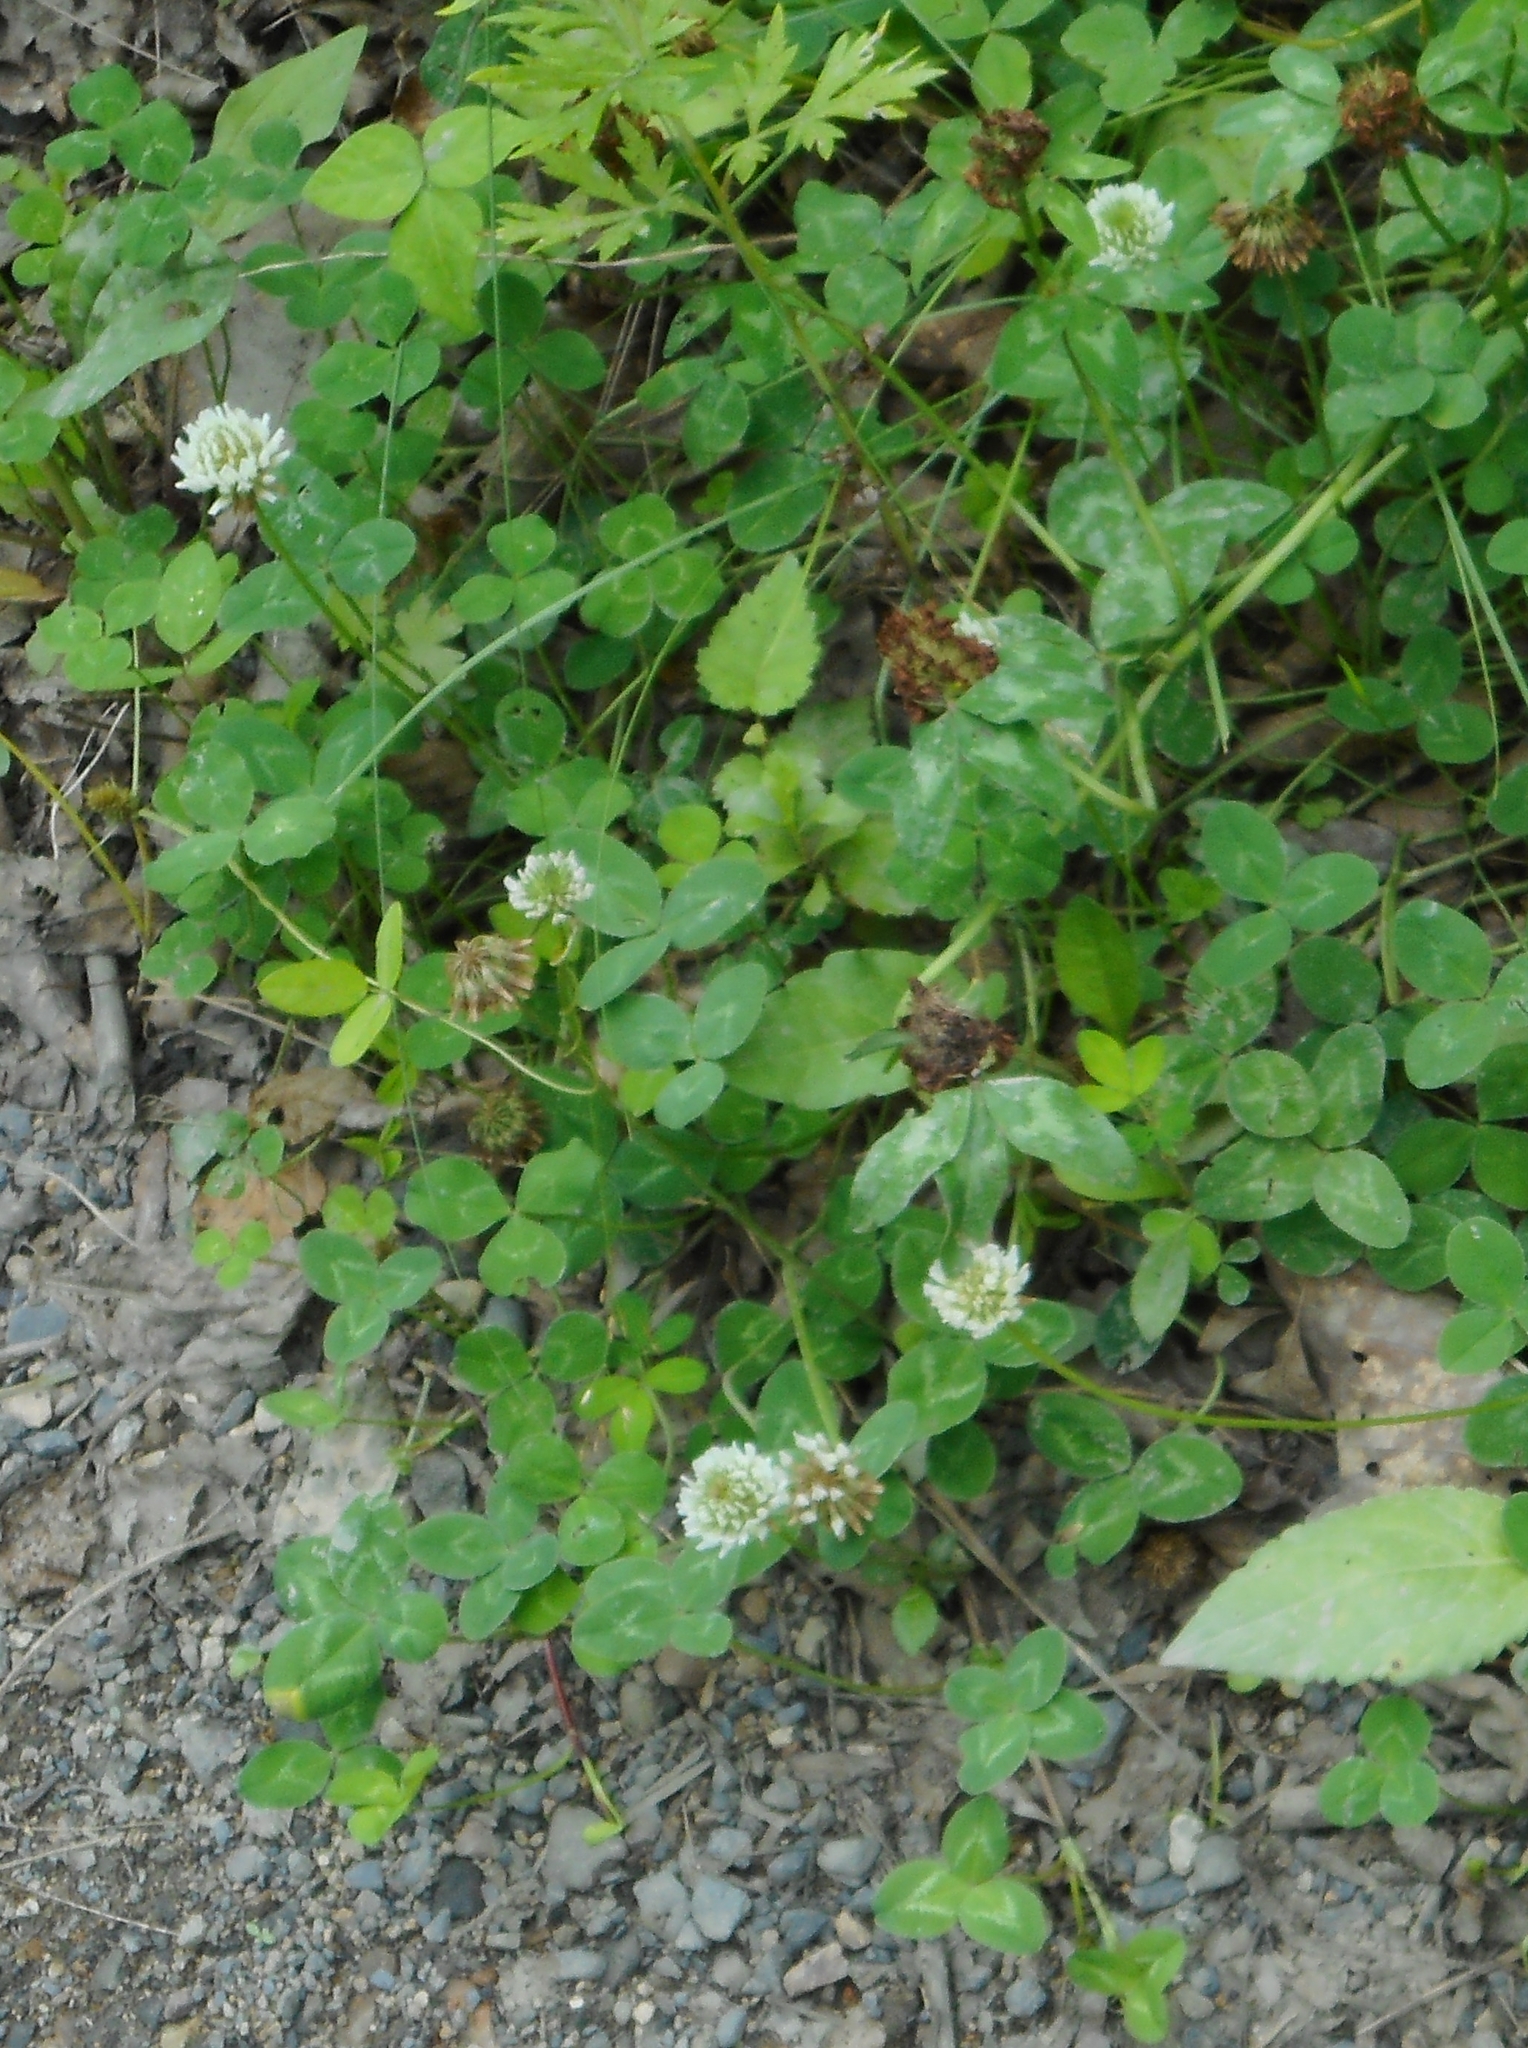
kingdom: Plantae
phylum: Tracheophyta
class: Magnoliopsida
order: Fabales
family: Fabaceae
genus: Trifolium
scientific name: Trifolium repens
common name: White clover
